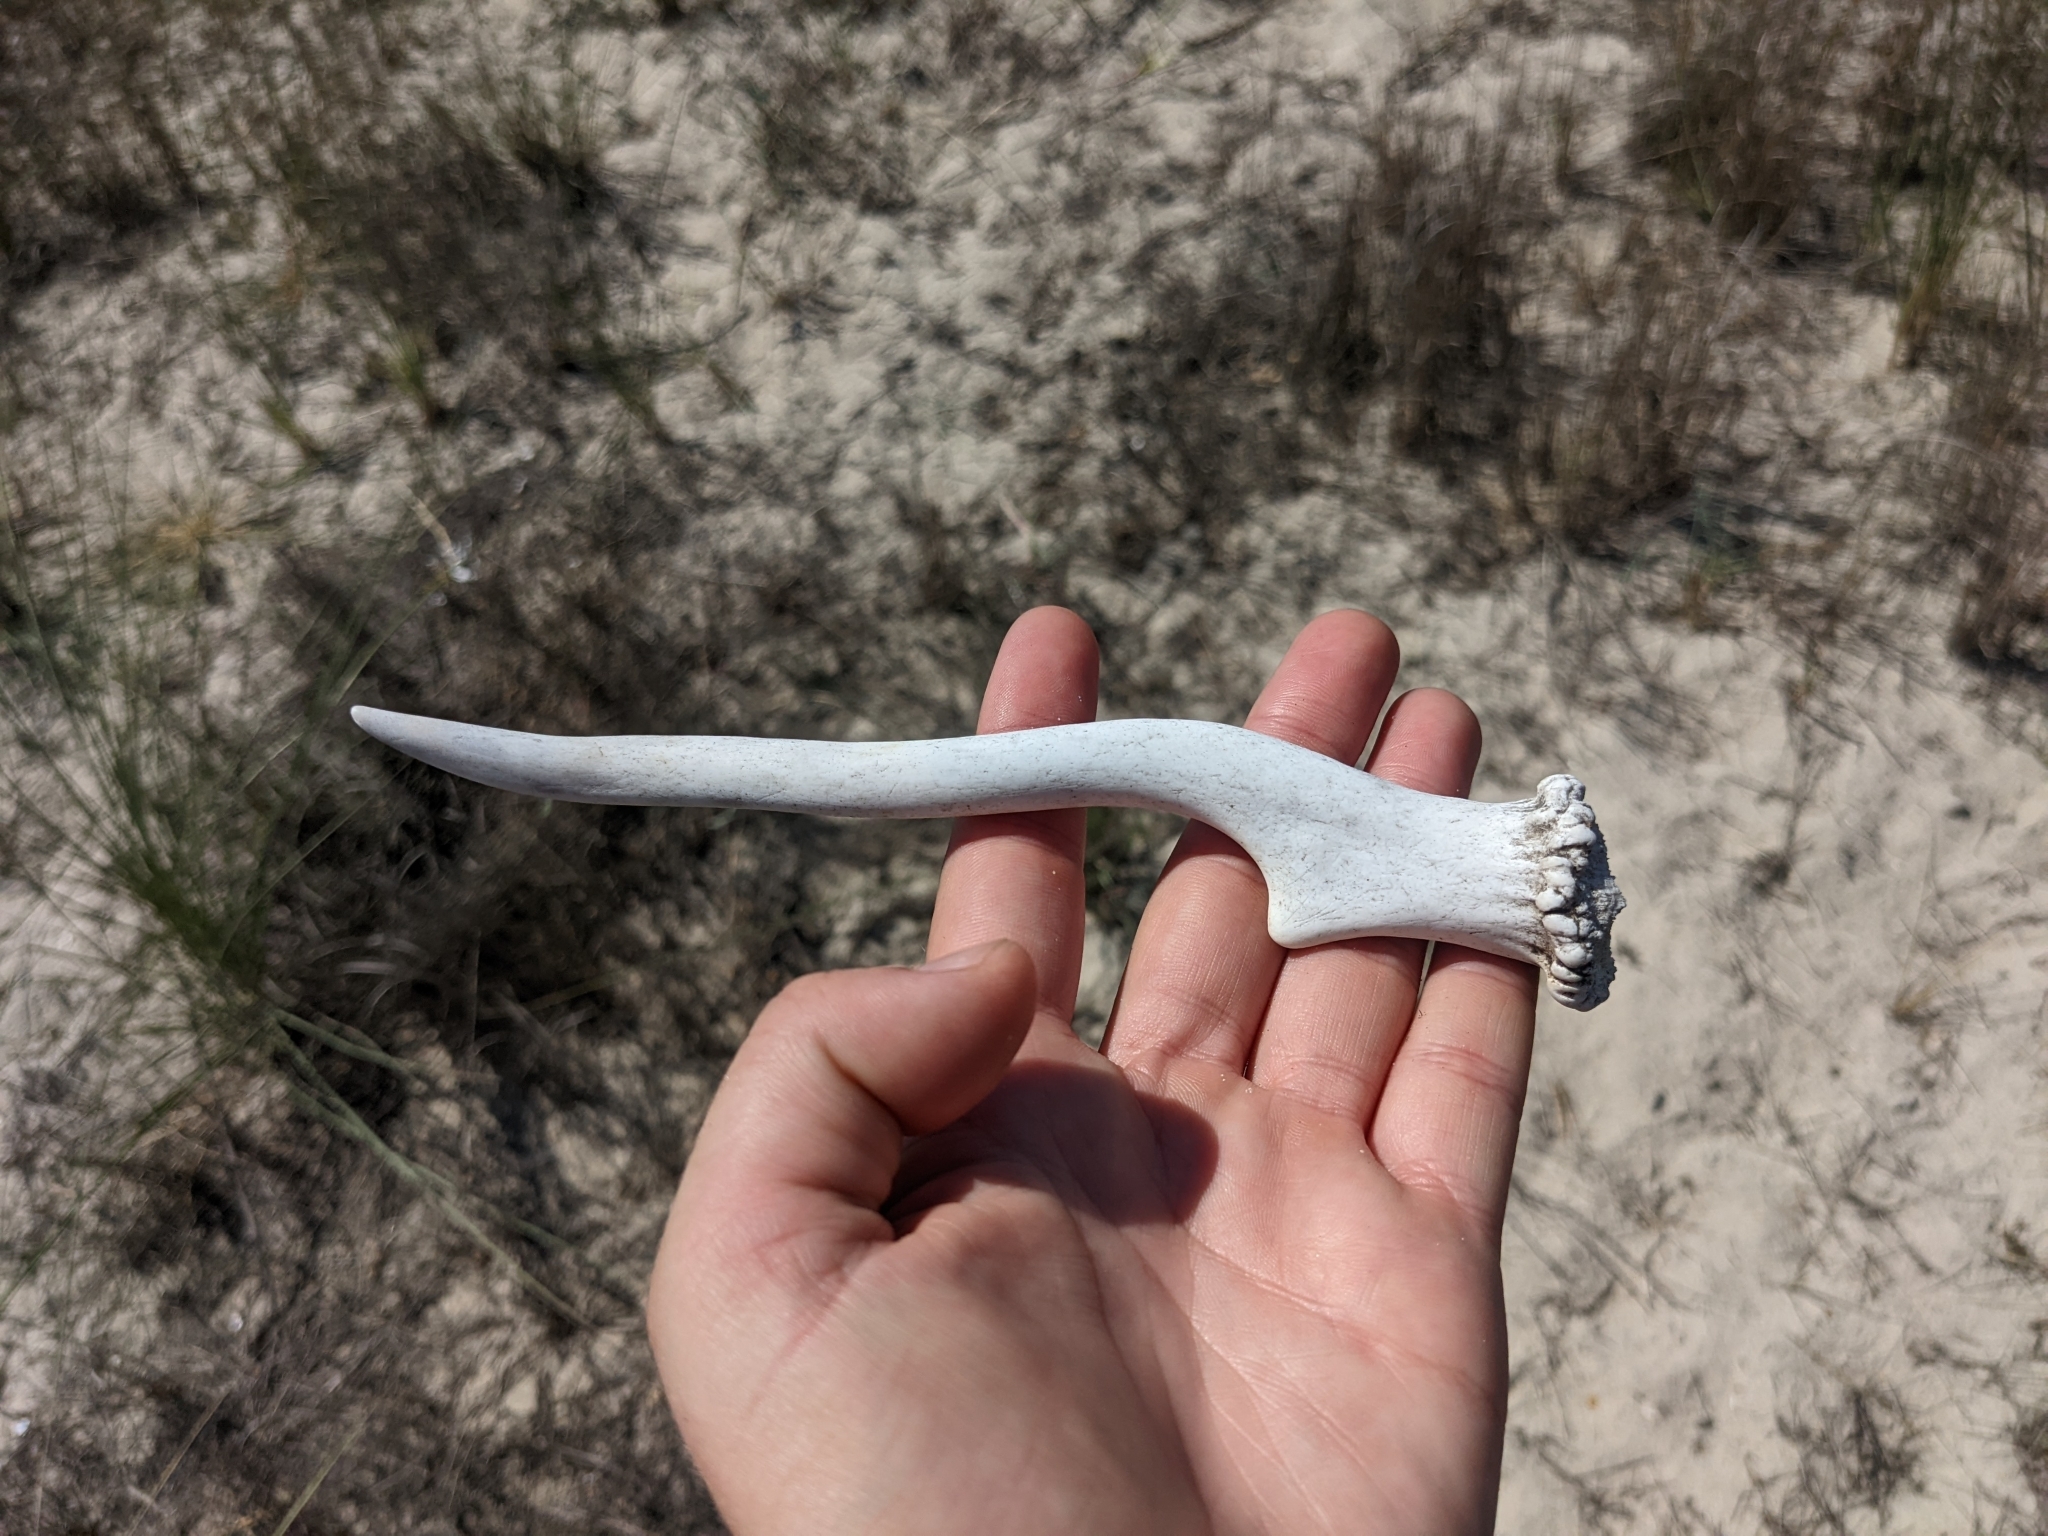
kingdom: Animalia
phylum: Chordata
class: Mammalia
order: Artiodactyla
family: Cervidae
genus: Odocoileus
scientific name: Odocoileus virginianus
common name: White-tailed deer
